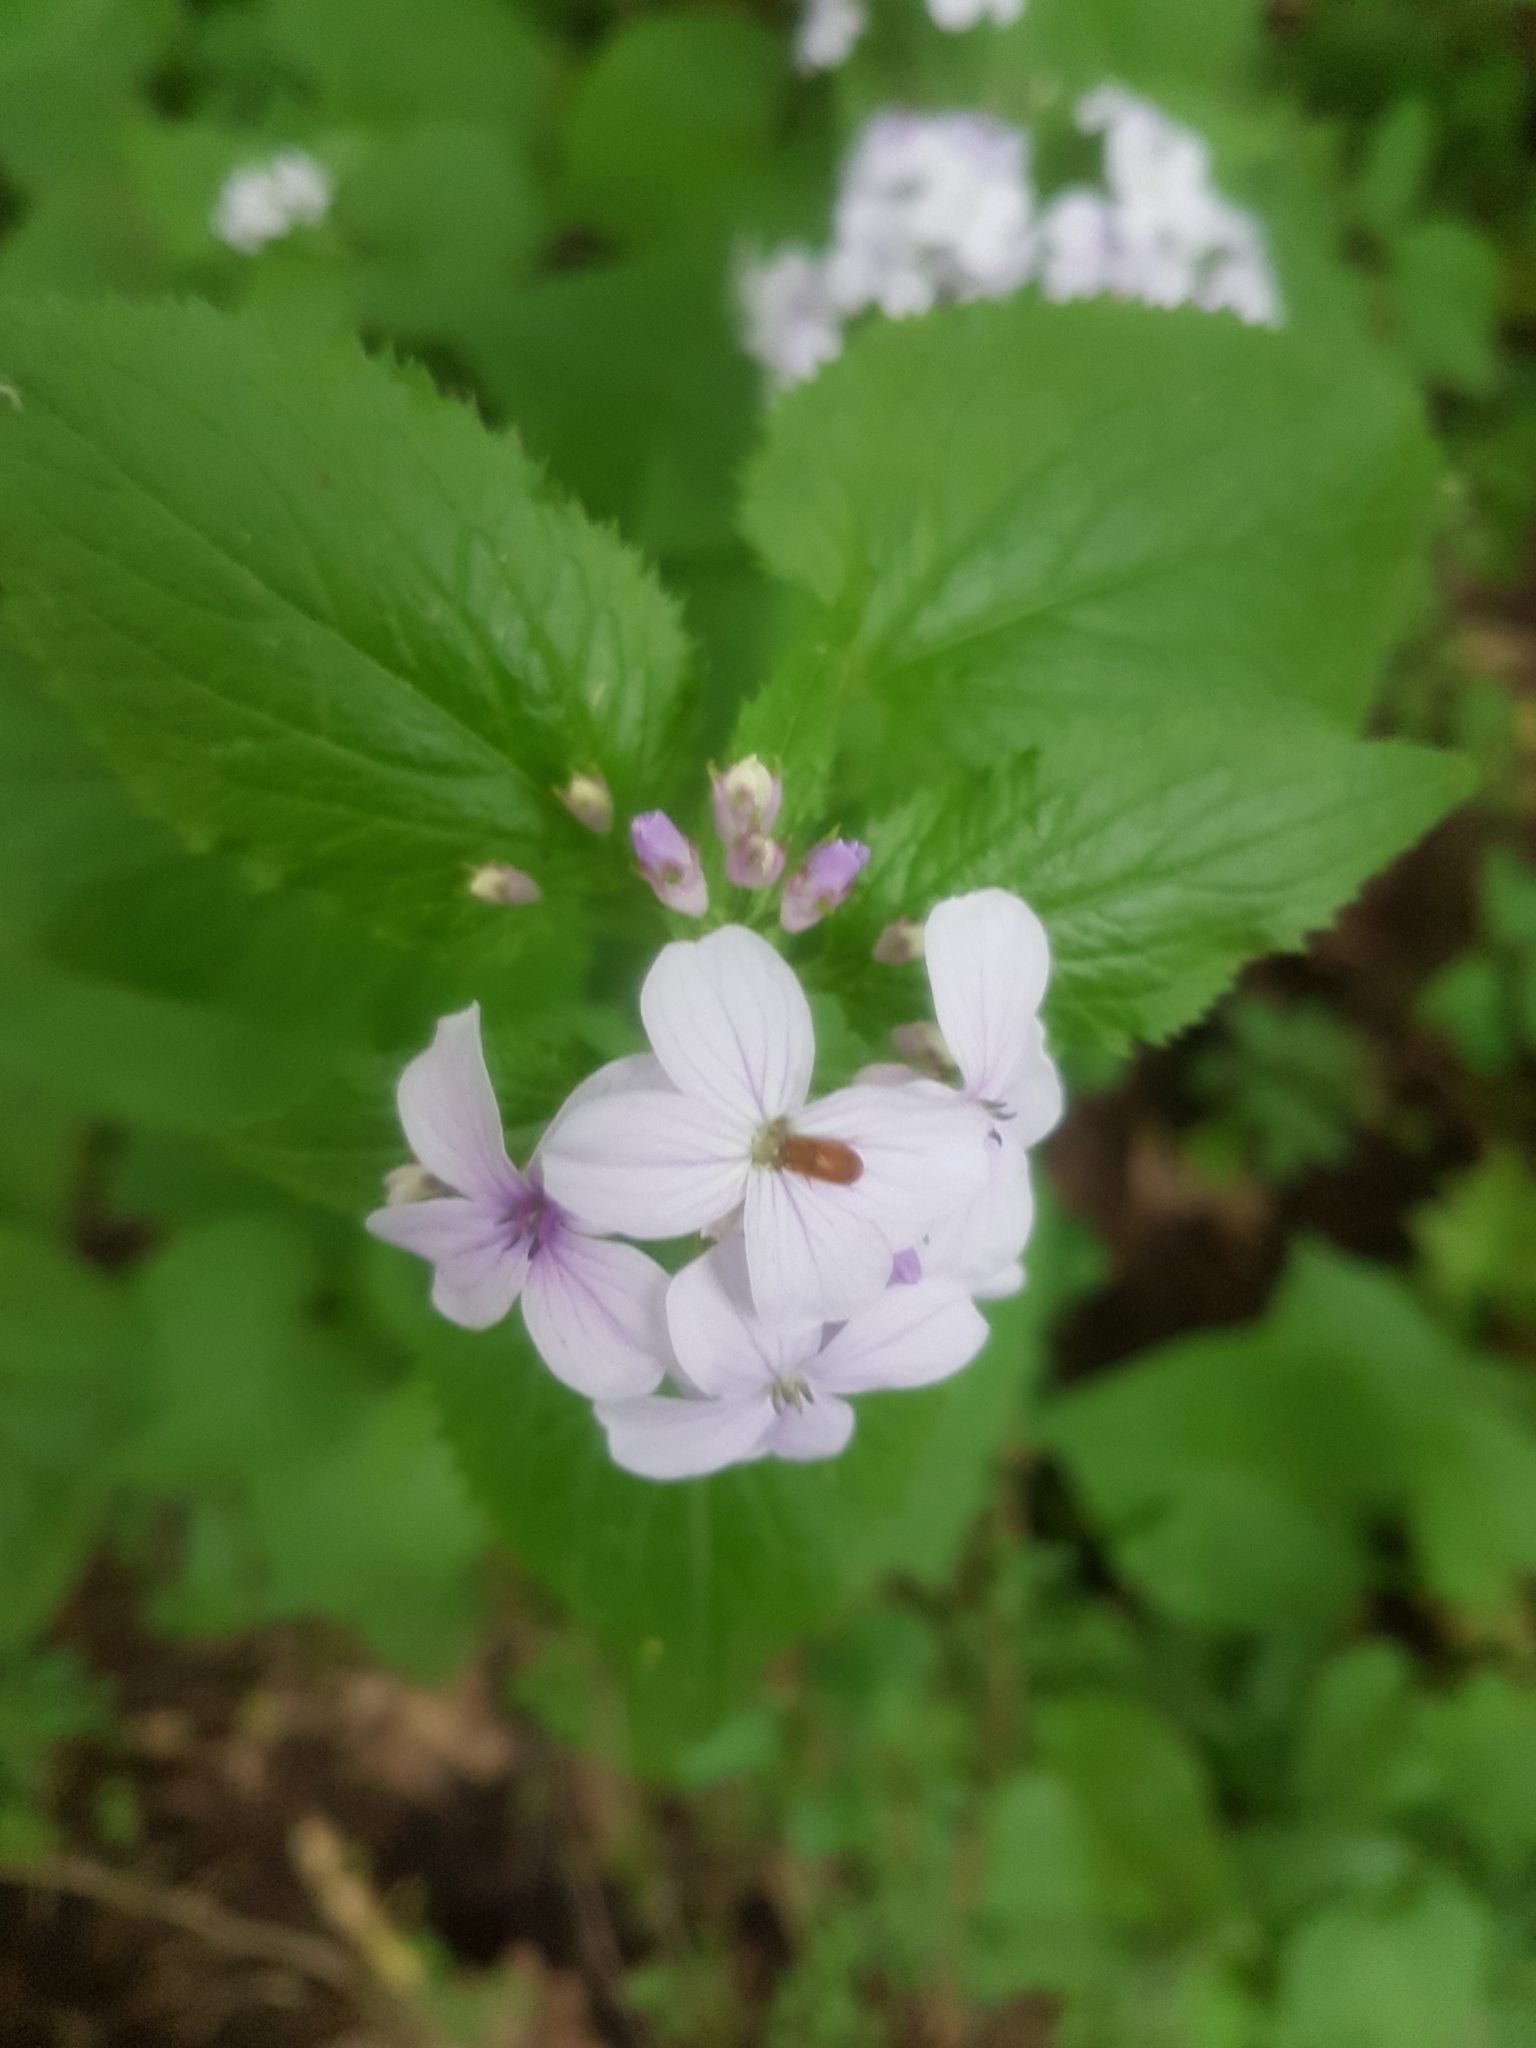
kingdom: Plantae
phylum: Tracheophyta
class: Magnoliopsida
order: Brassicales
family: Brassicaceae
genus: Lunaria
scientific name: Lunaria rediviva
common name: Perennial honesty
